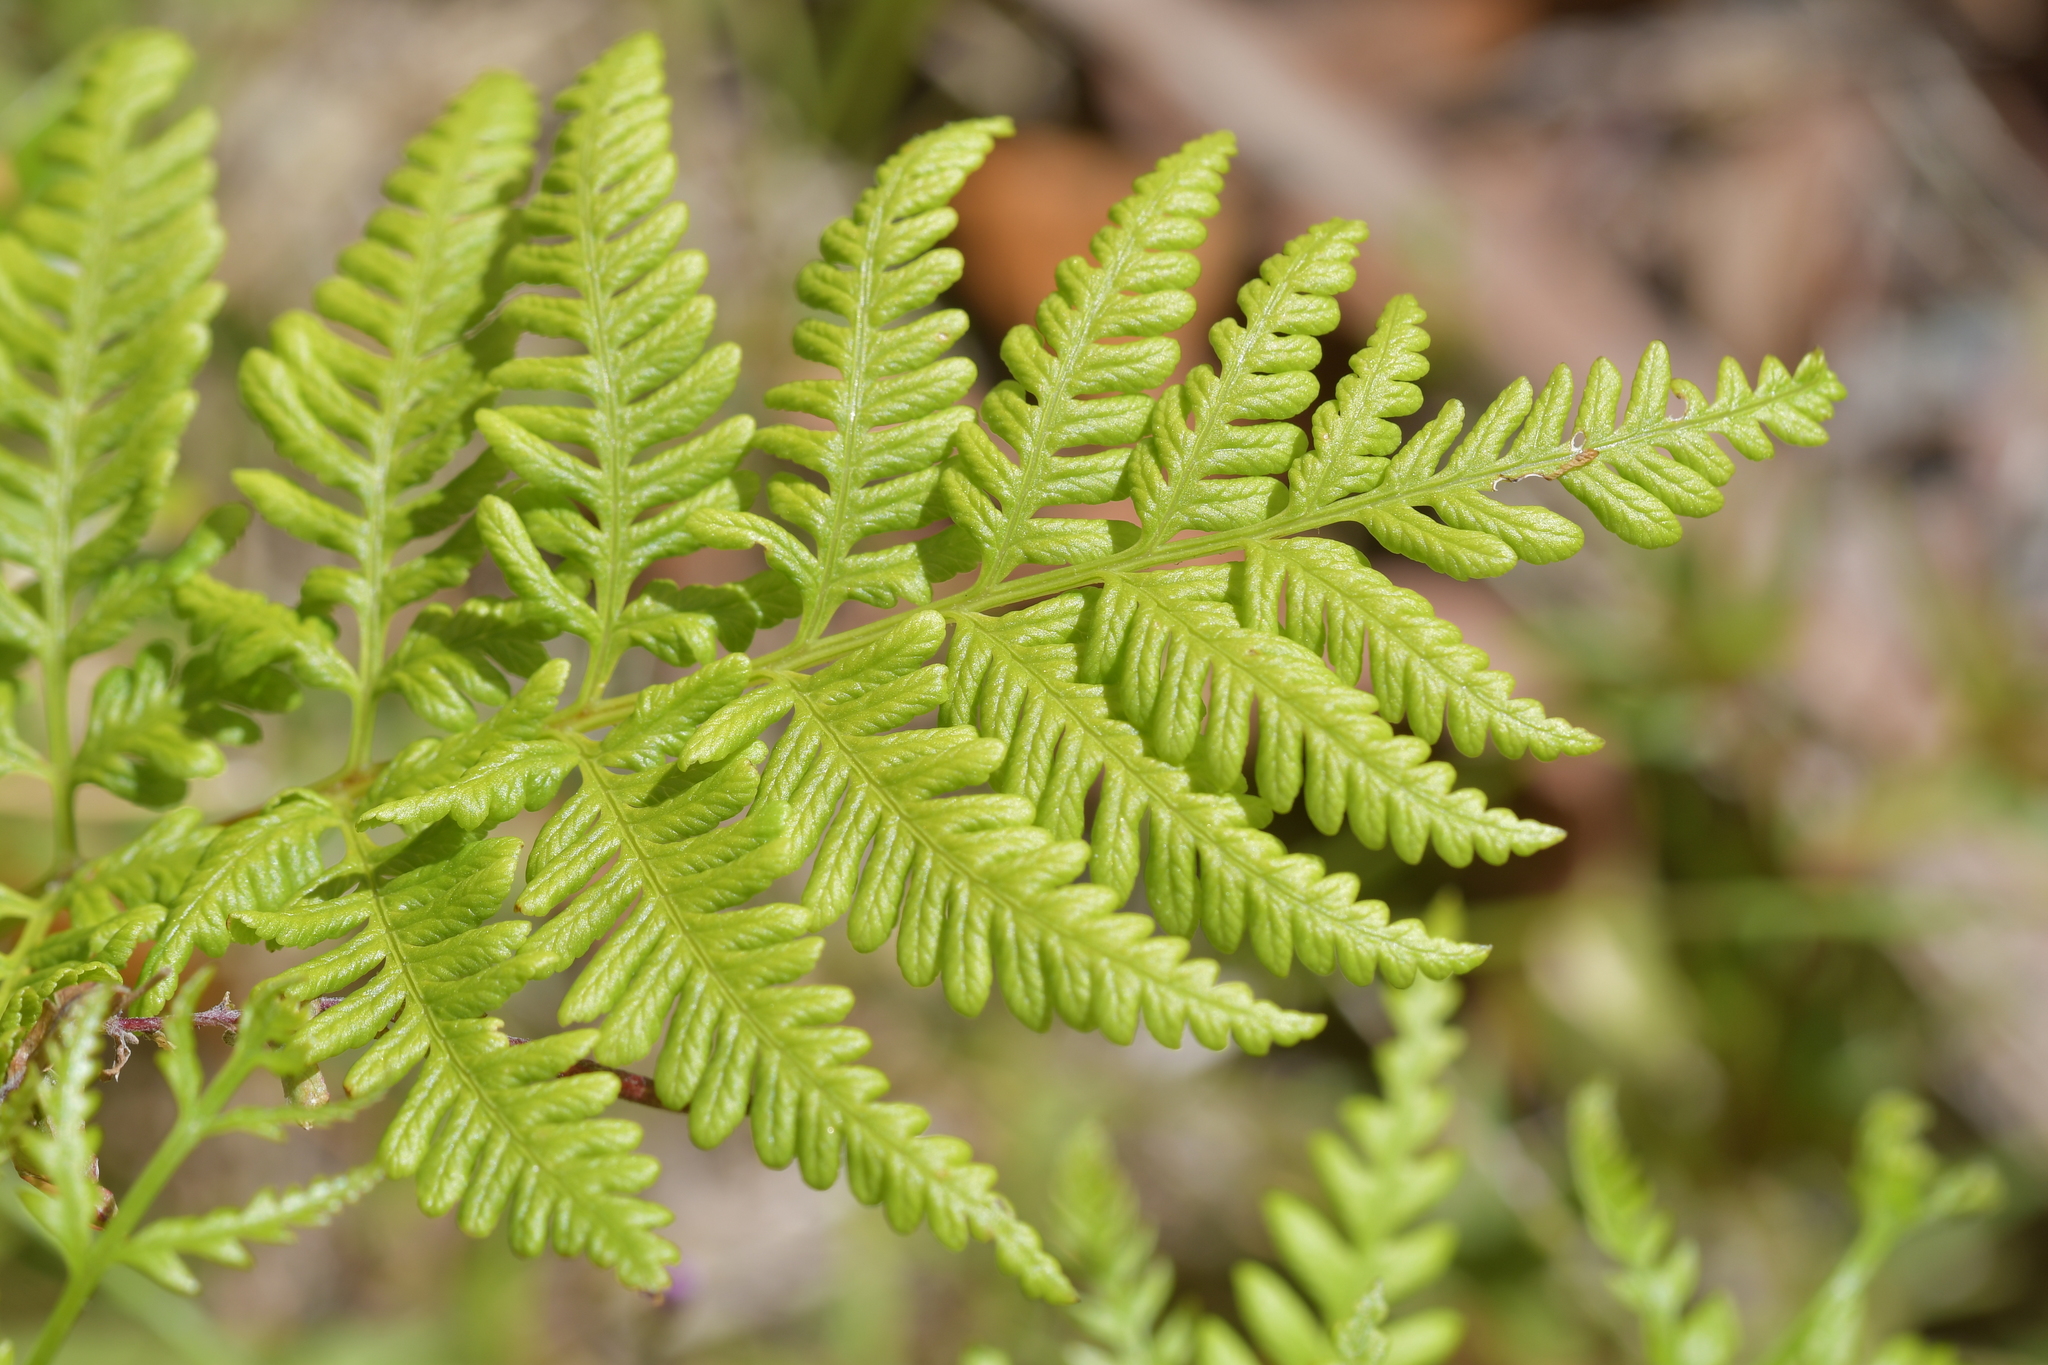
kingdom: Plantae
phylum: Tracheophyta
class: Polypodiopsida
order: Polypodiales
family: Pteridaceae
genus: Pteris
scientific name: Pteris tremula
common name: Australian brake
